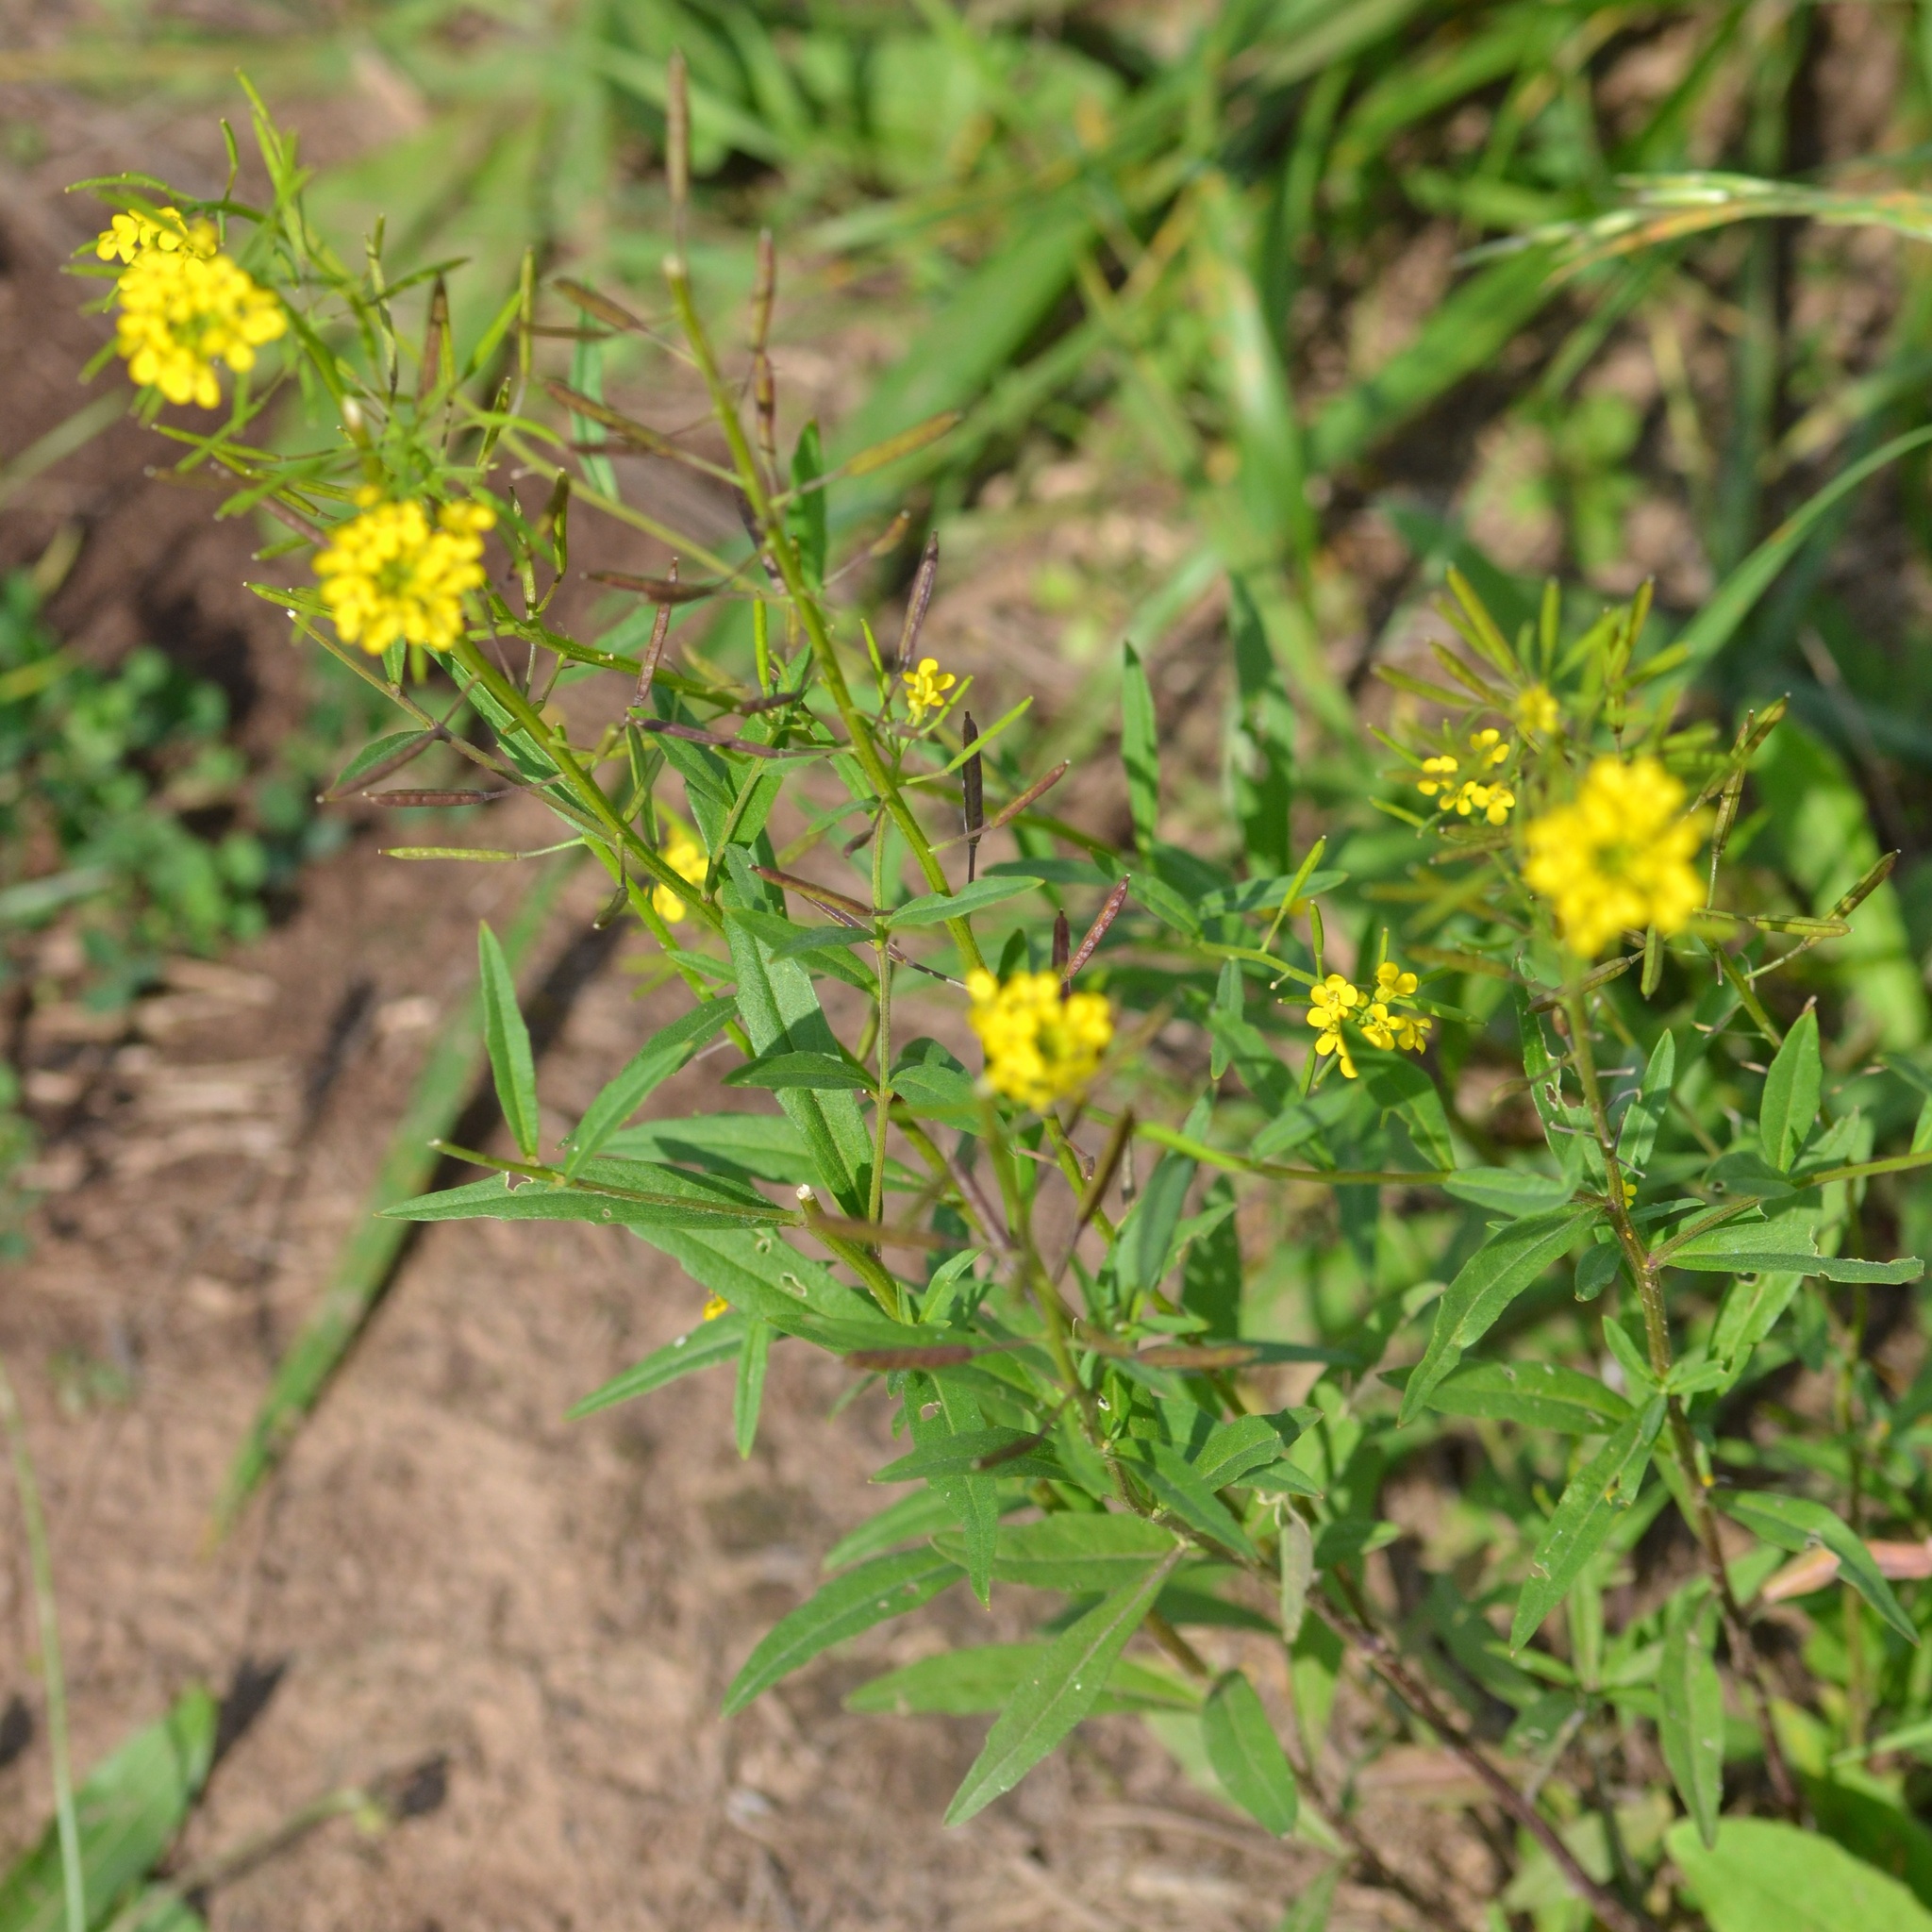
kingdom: Plantae
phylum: Tracheophyta
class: Magnoliopsida
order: Brassicales
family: Brassicaceae
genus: Erysimum
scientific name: Erysimum cheiranthoides
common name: Treacle mustard
